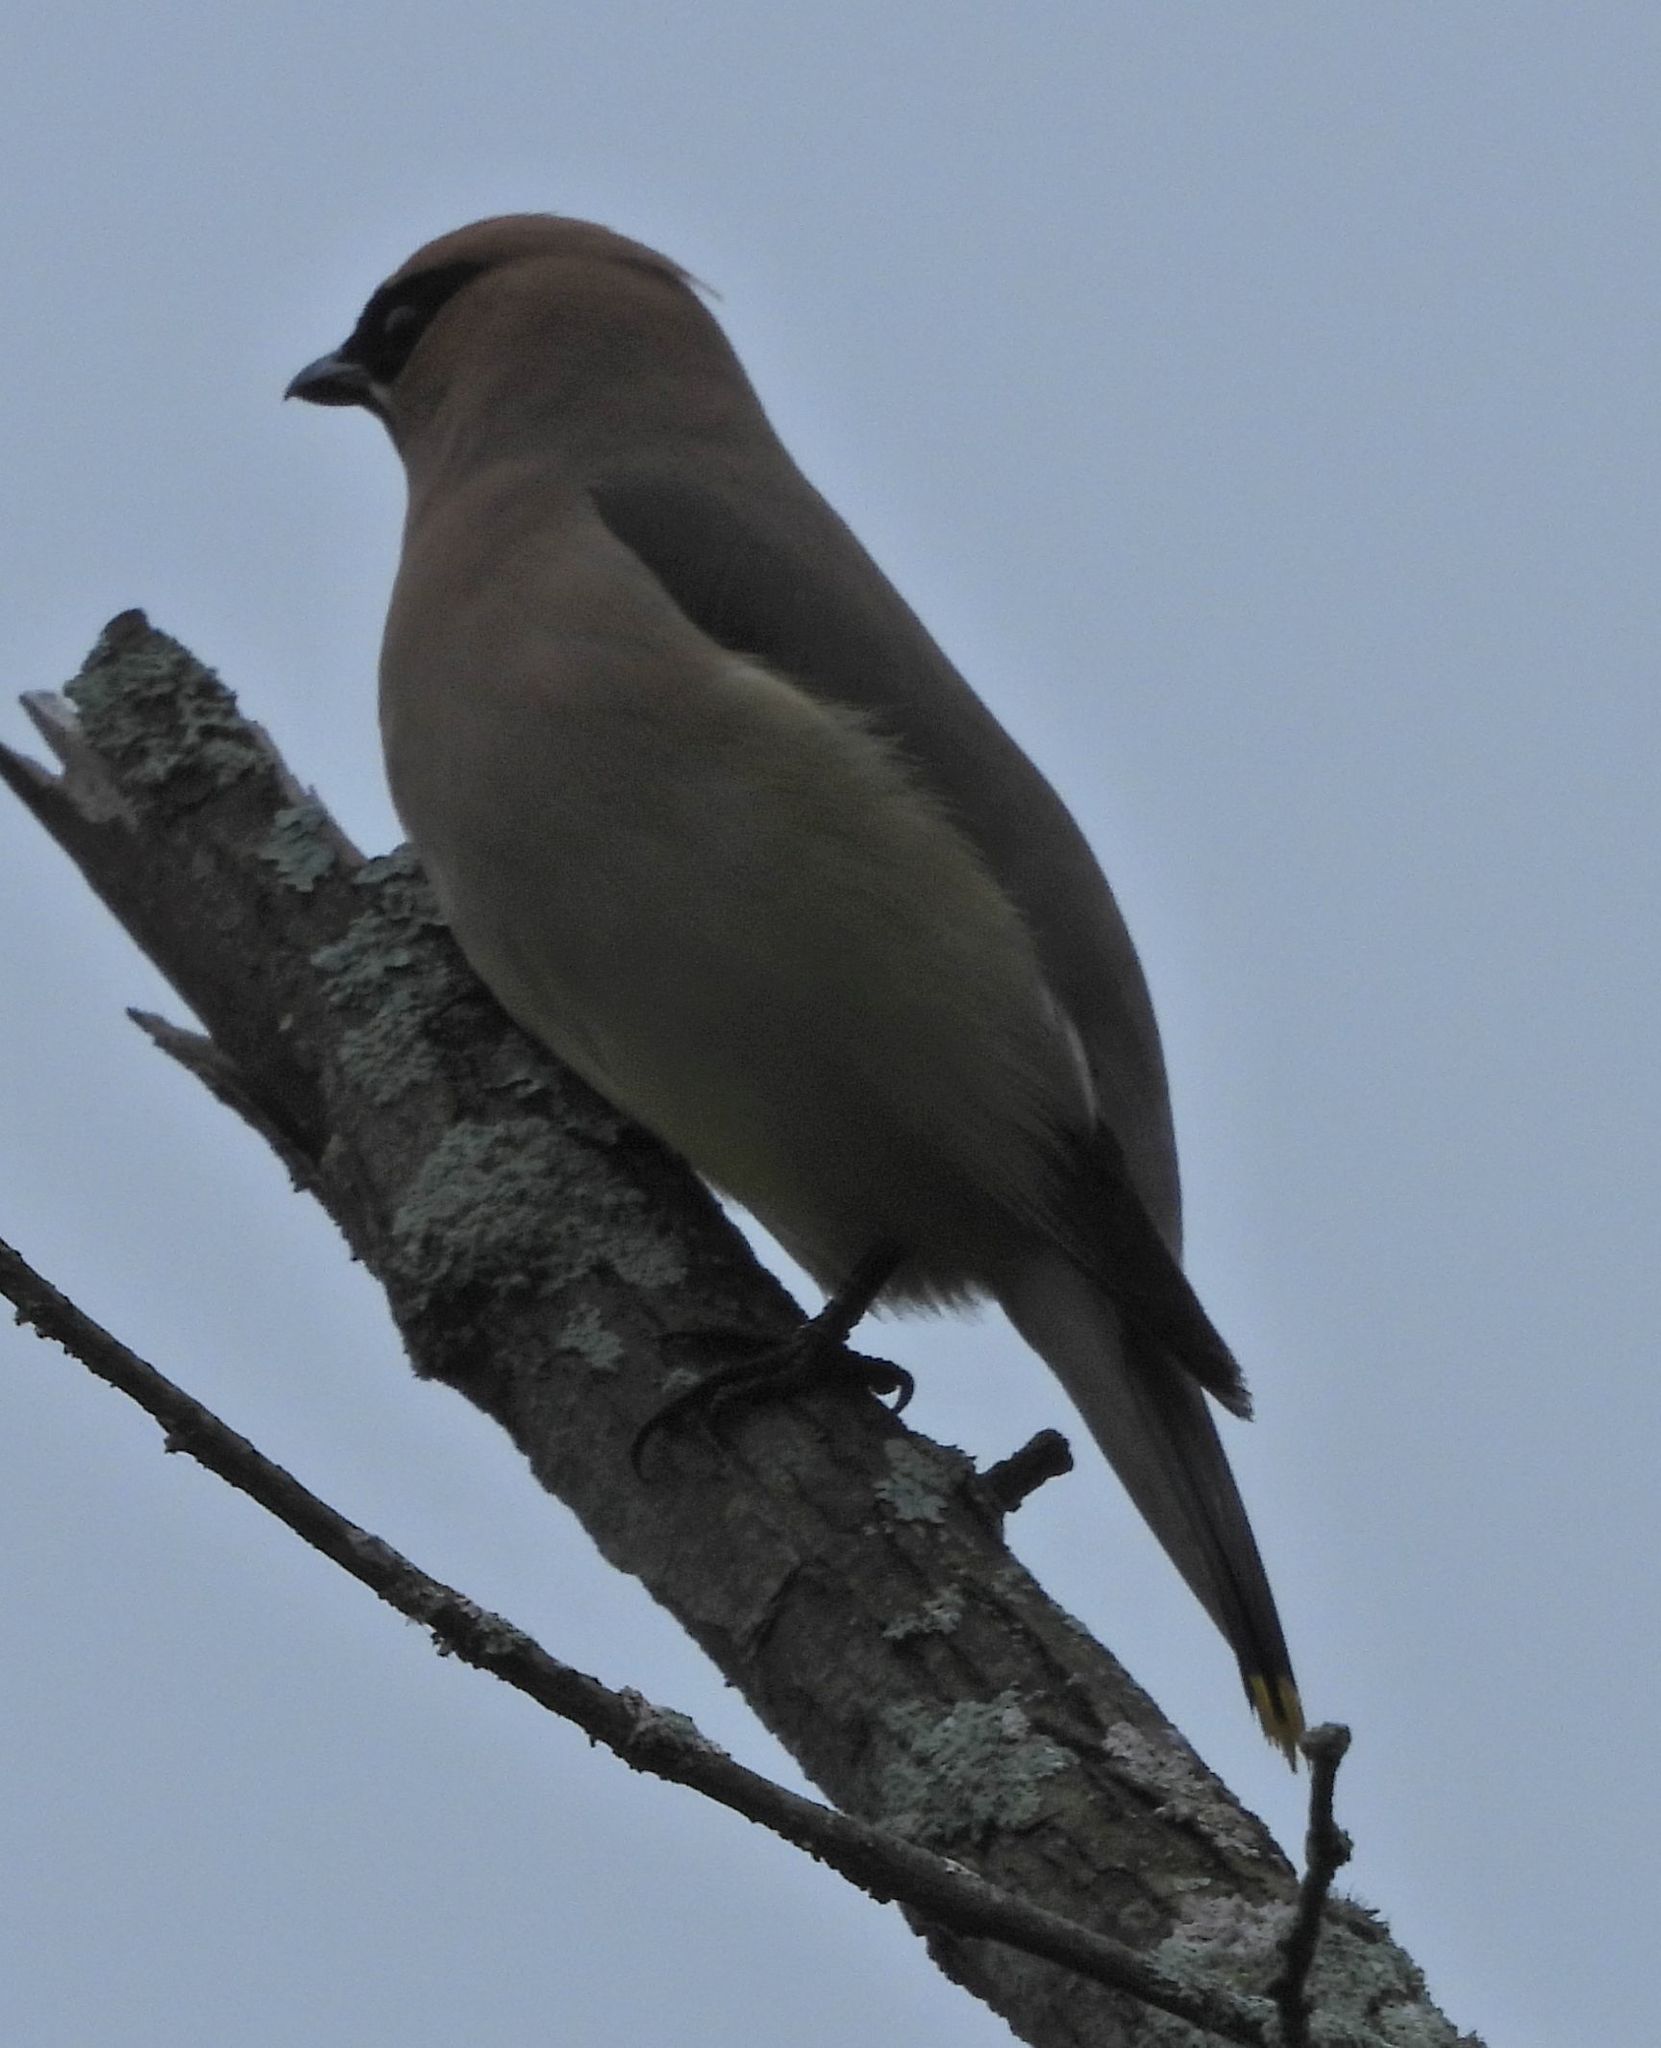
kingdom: Animalia
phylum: Chordata
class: Aves
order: Passeriformes
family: Bombycillidae
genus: Bombycilla
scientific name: Bombycilla cedrorum
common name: Cedar waxwing
